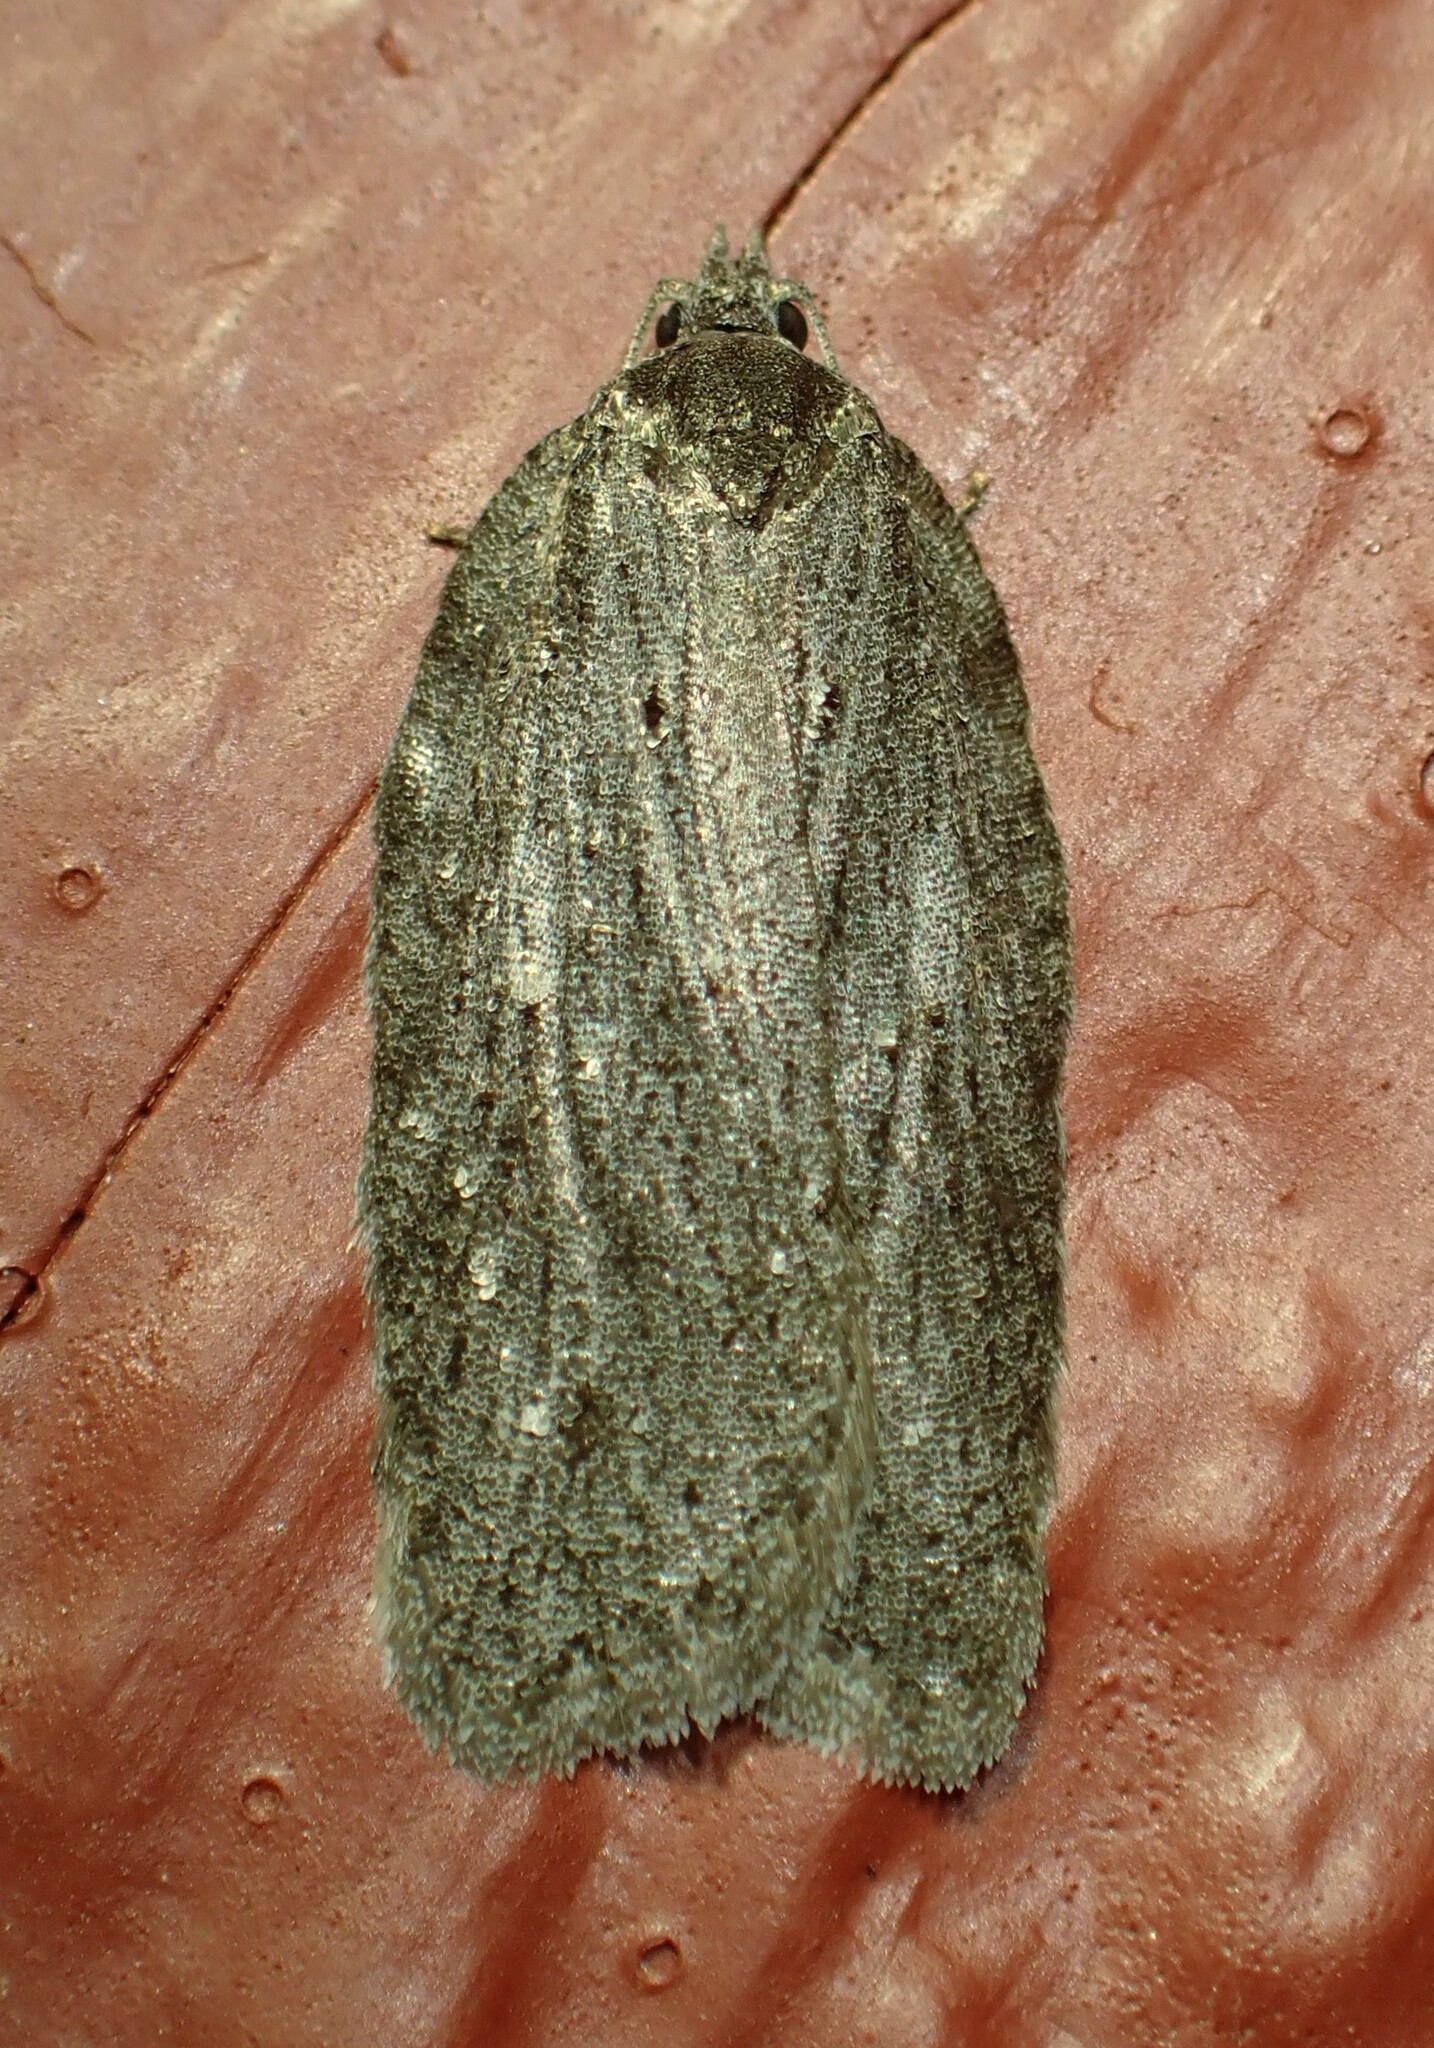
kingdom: Animalia
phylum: Arthropoda
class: Insecta
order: Lepidoptera
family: Tortricidae
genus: Acleris
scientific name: Acleris maximana
